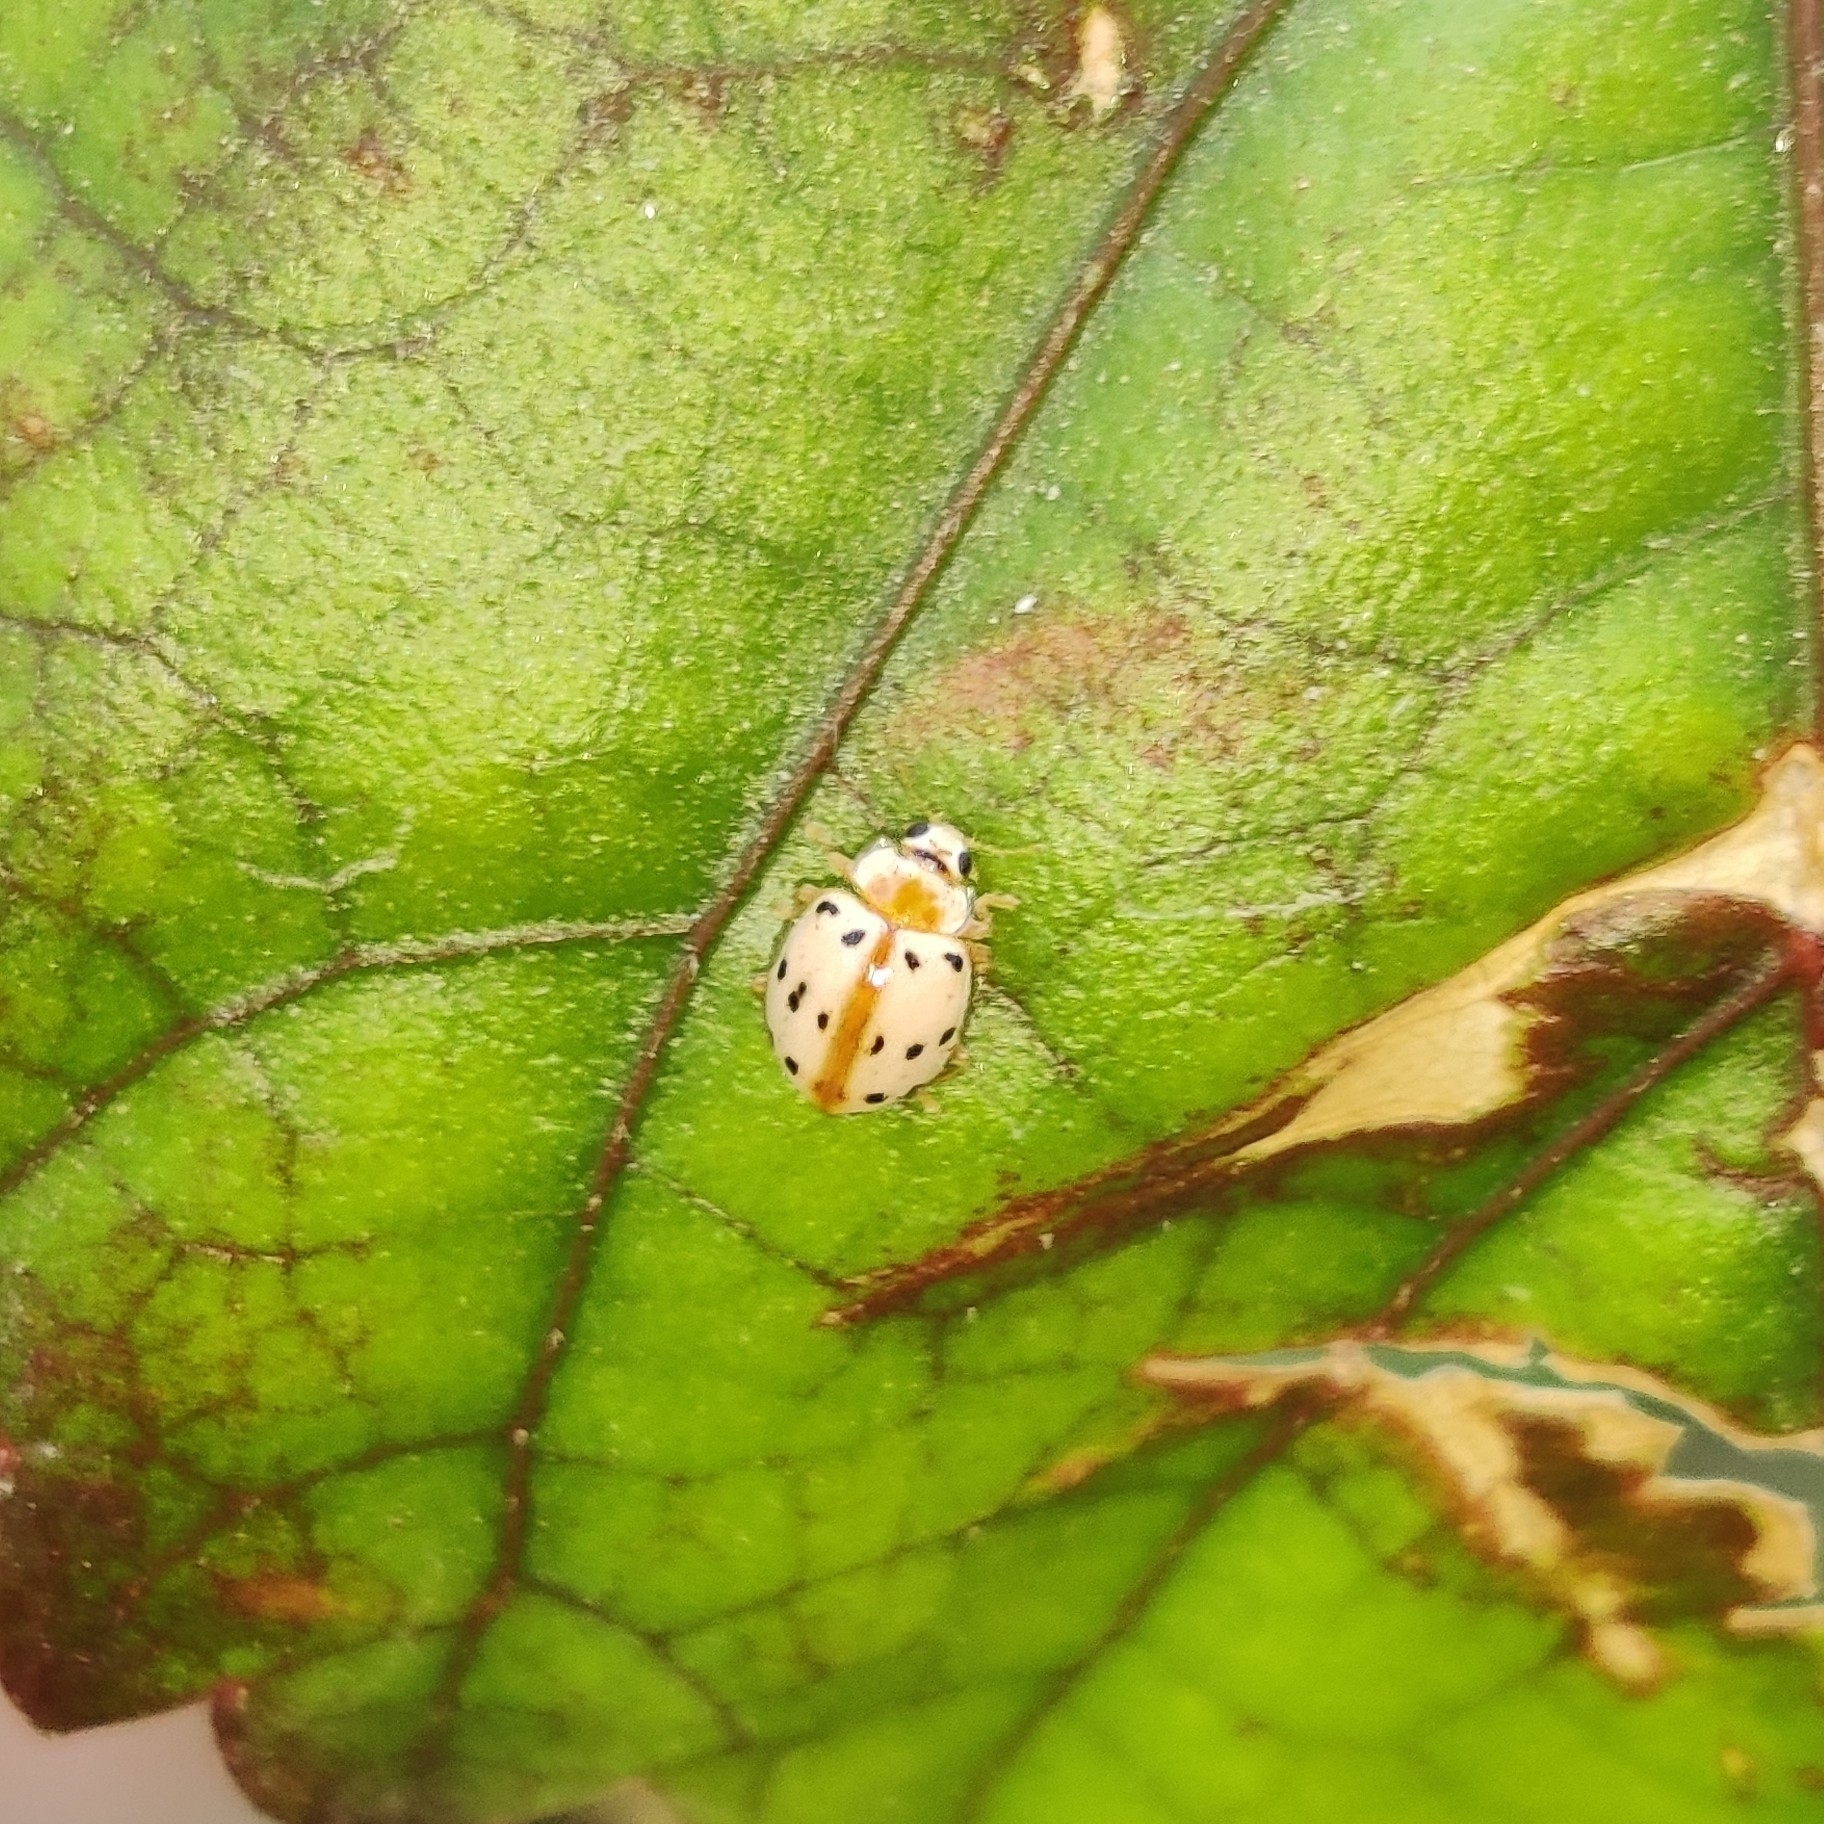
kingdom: Animalia
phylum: Arthropoda
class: Insecta
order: Coleoptera
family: Coccinellidae
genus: Psyllobora
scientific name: Psyllobora bisoctonotata
